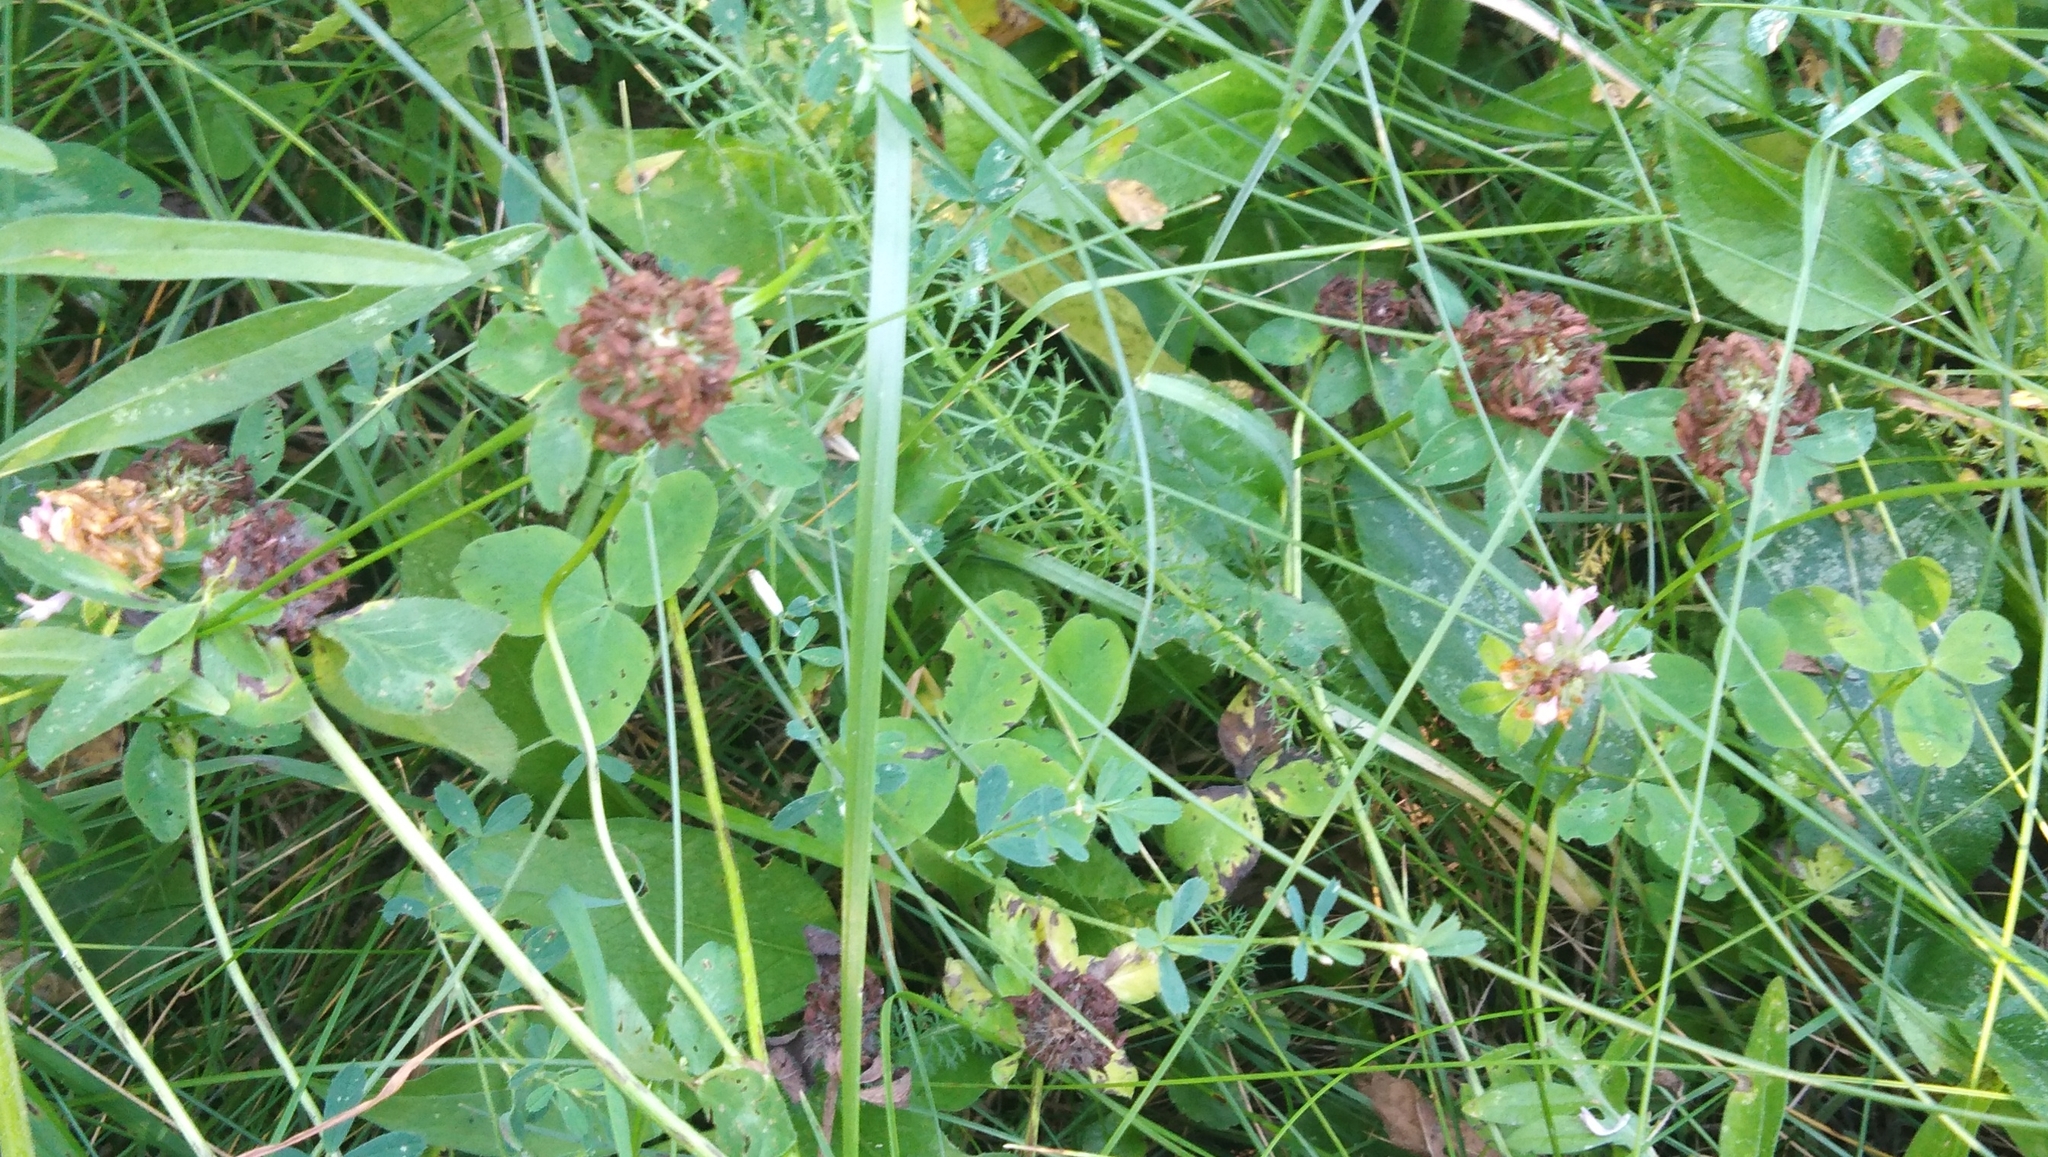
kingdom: Plantae
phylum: Tracheophyta
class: Magnoliopsida
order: Fabales
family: Fabaceae
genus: Trifolium
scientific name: Trifolium pratense
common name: Red clover
